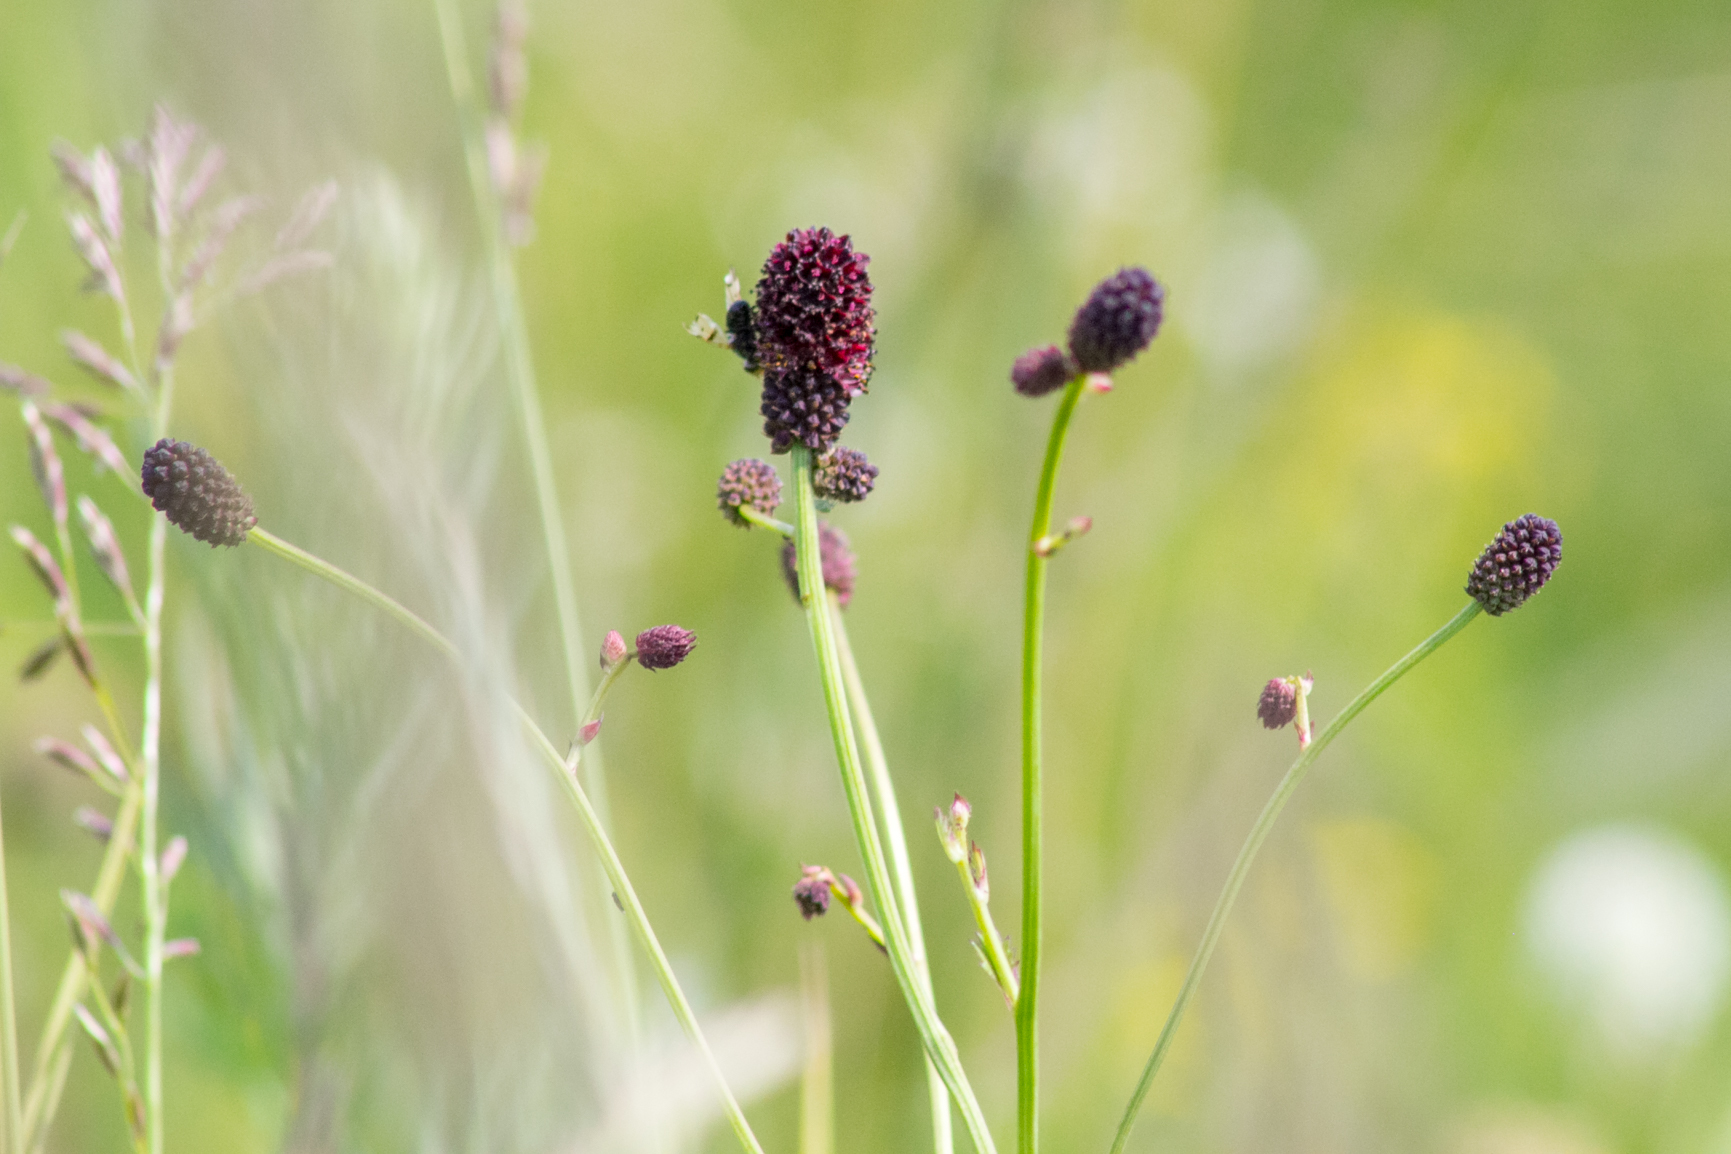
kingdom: Plantae
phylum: Tracheophyta
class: Magnoliopsida
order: Rosales
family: Rosaceae
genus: Sanguisorba
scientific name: Sanguisorba officinalis
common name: Great burnet
